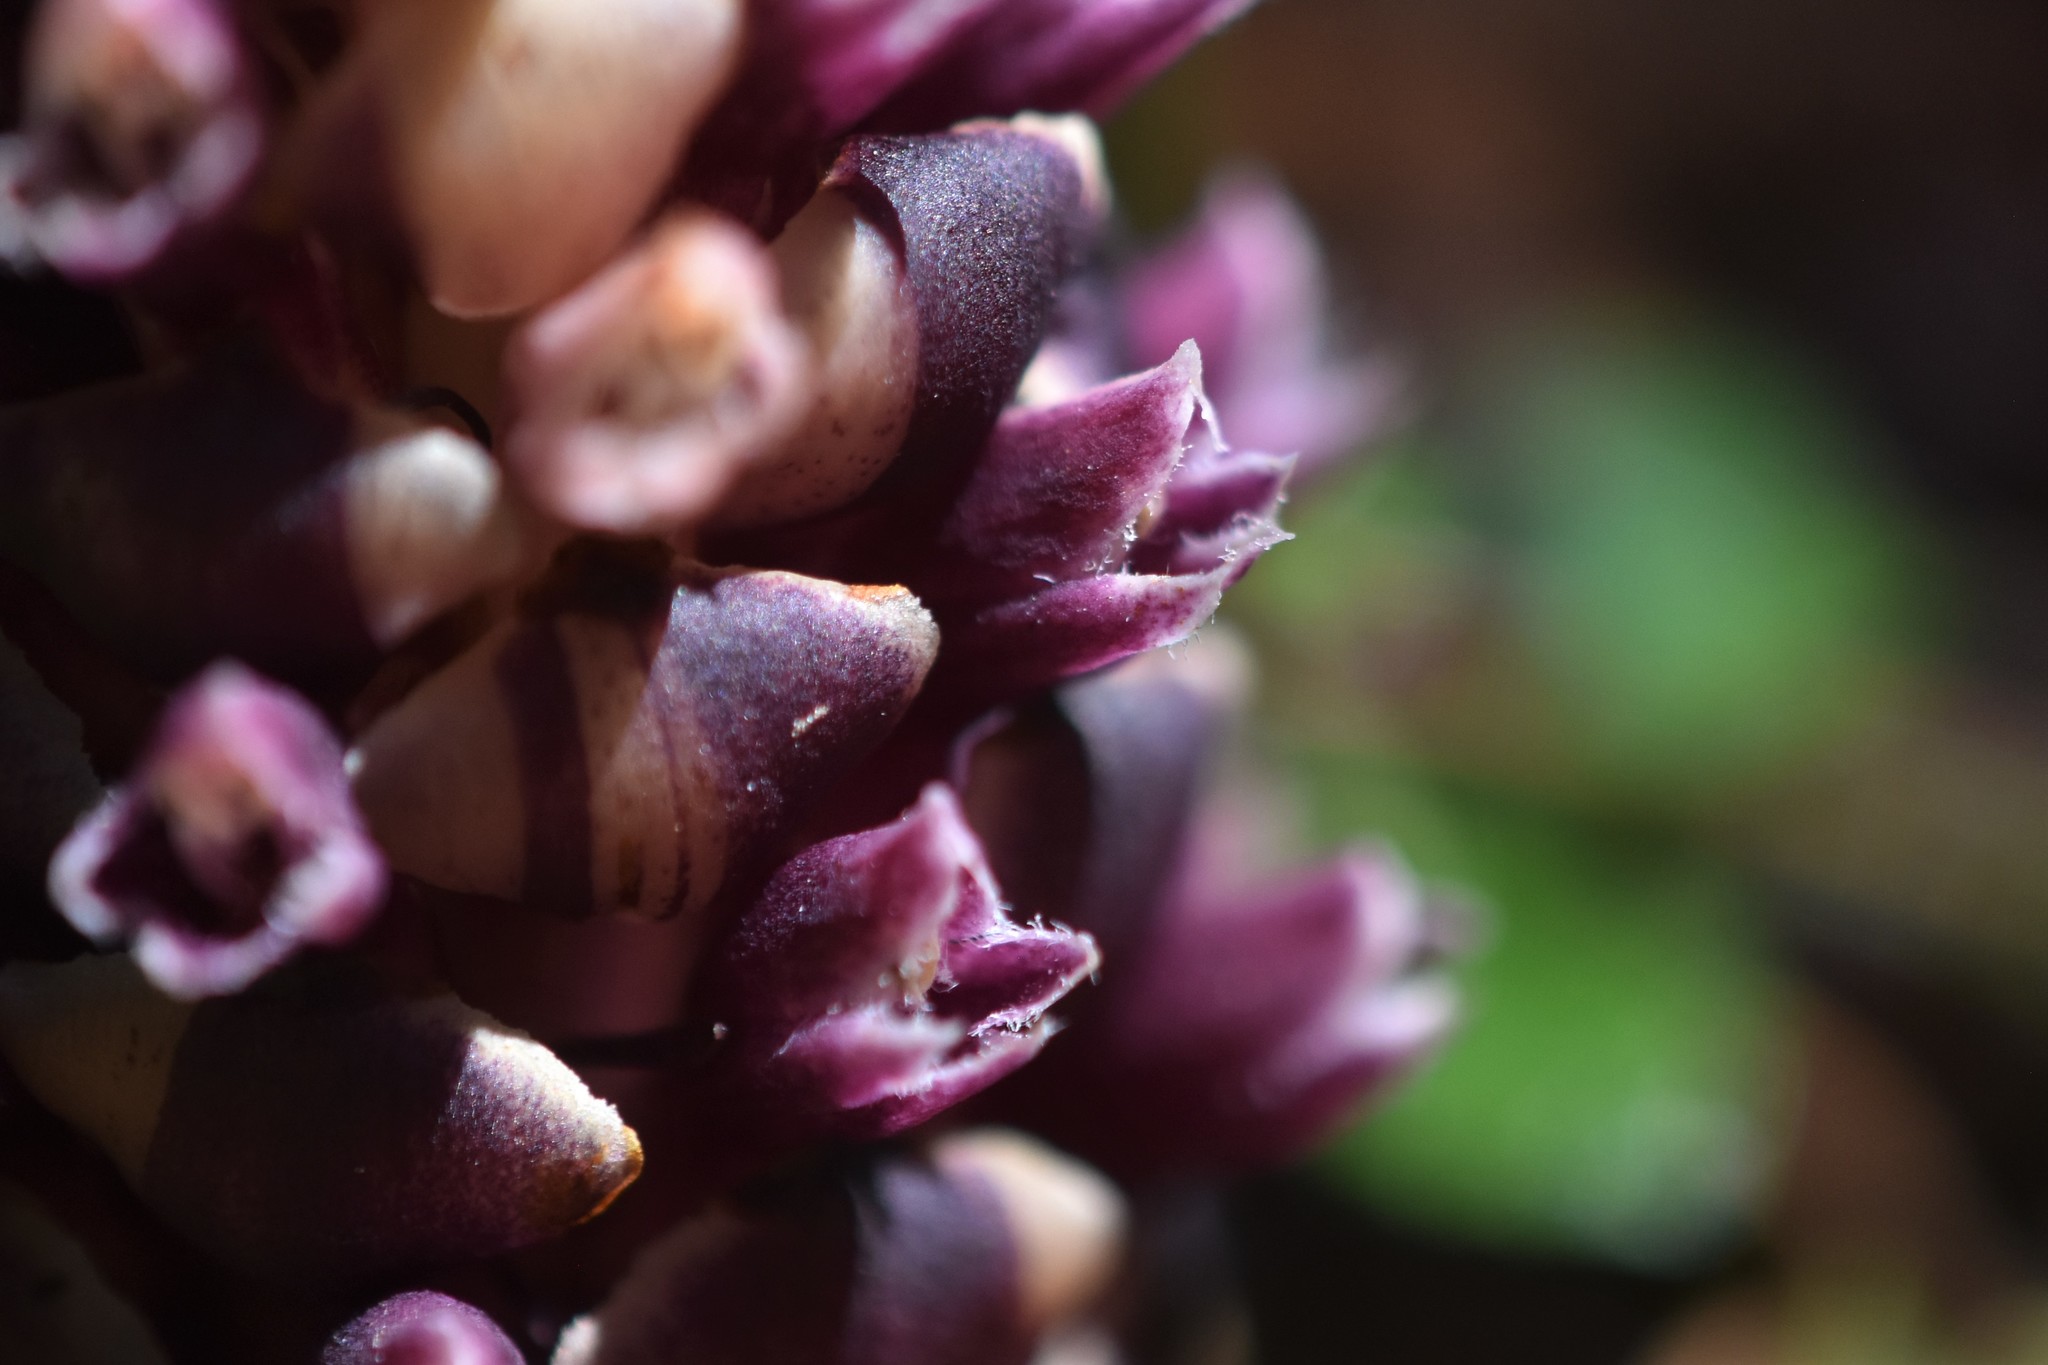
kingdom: Plantae
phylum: Tracheophyta
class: Magnoliopsida
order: Lamiales
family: Orobanchaceae
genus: Kopsiopsis
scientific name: Kopsiopsis hookeri
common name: Hooker's groundcone
